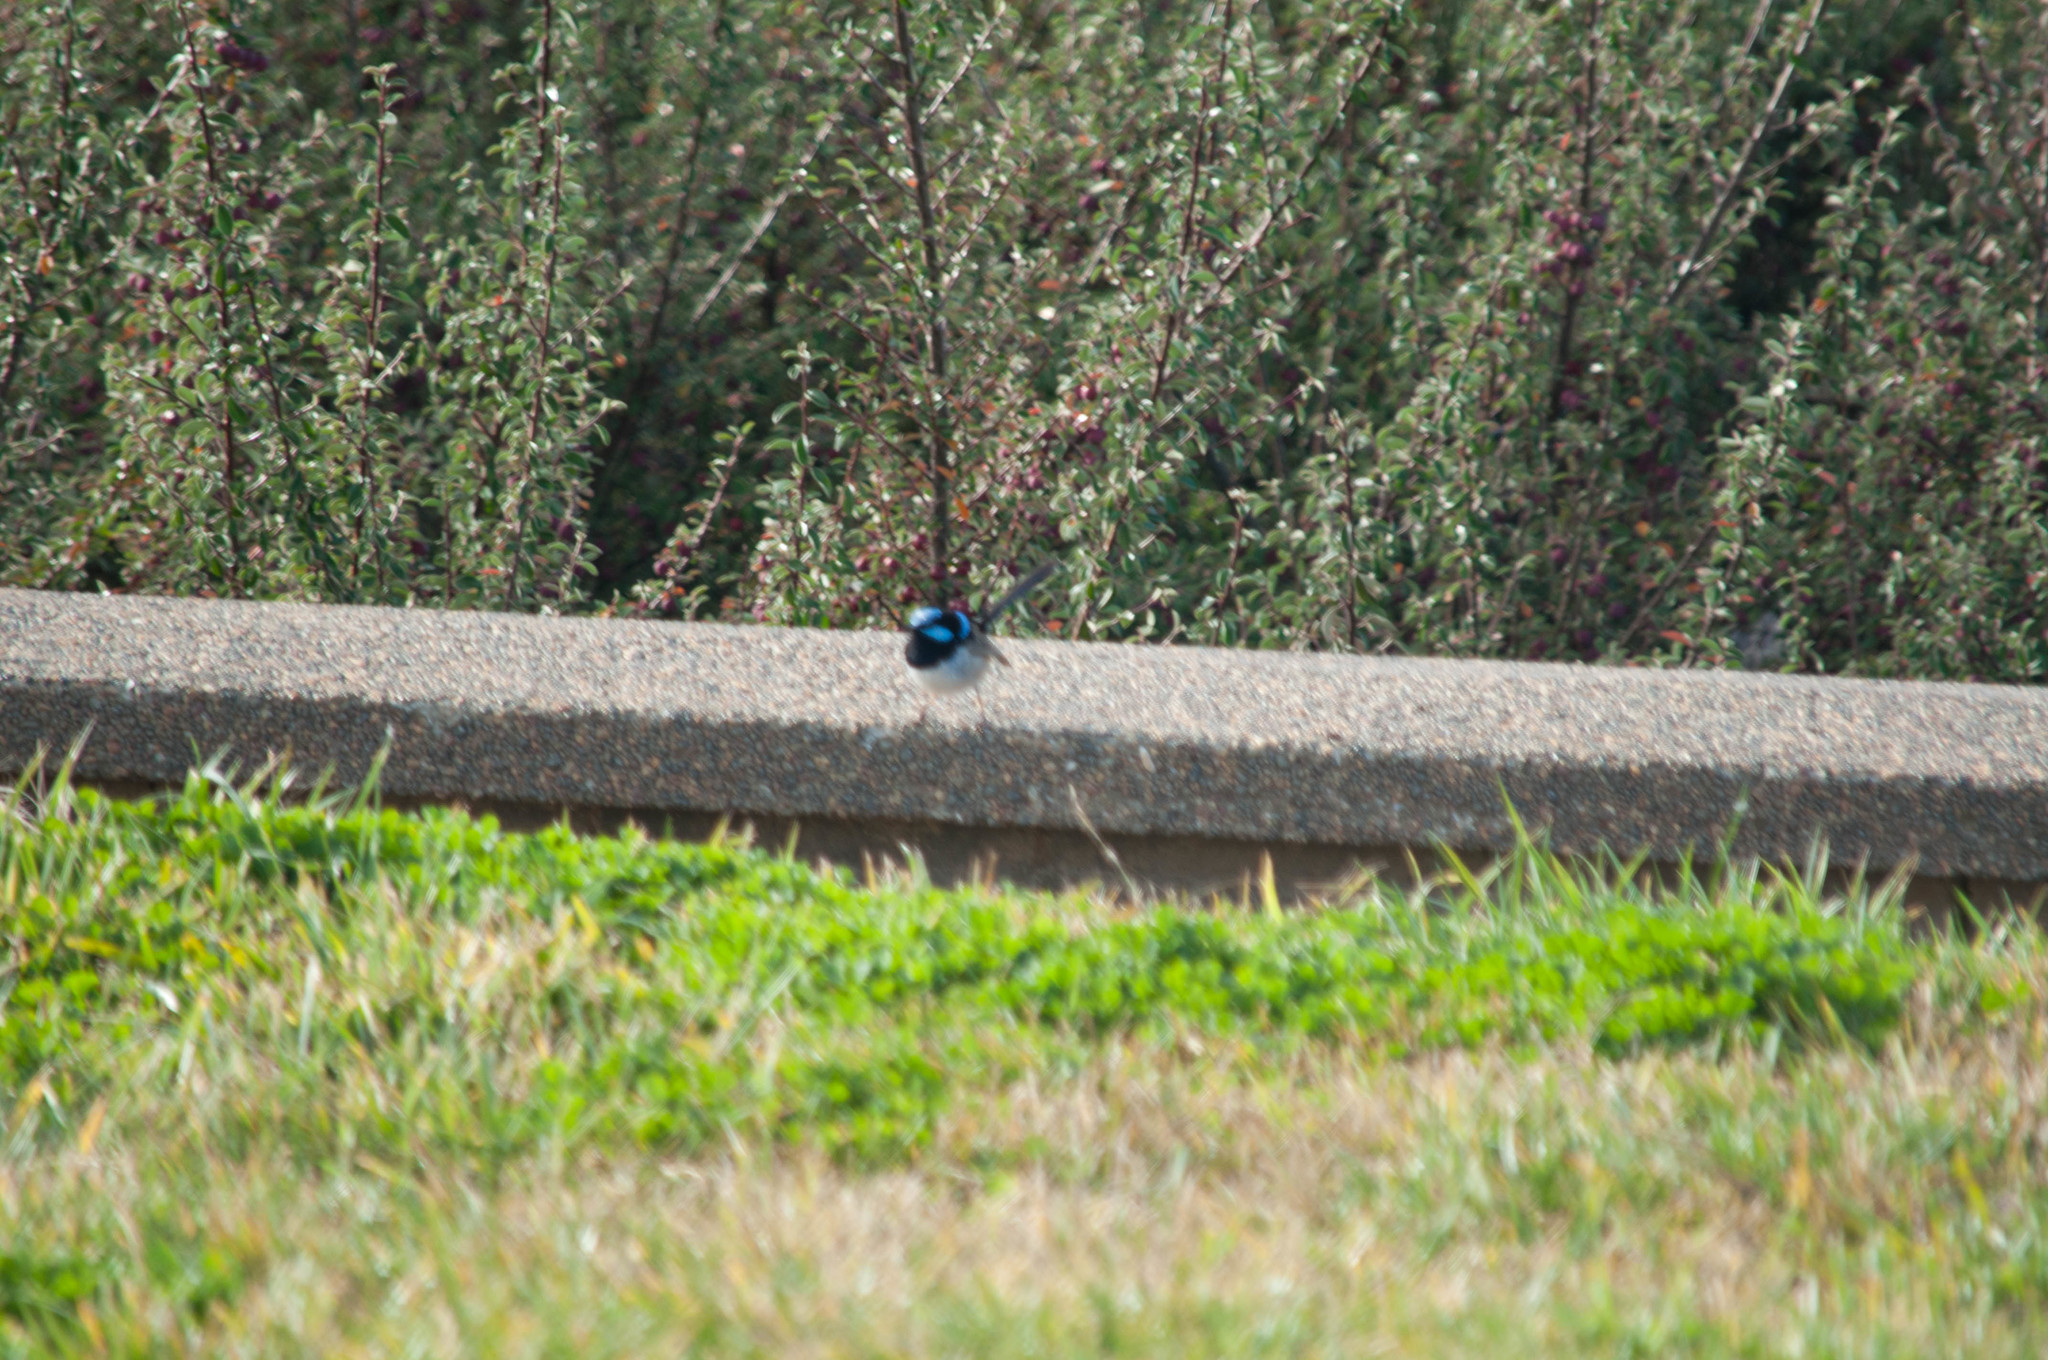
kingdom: Animalia
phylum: Chordata
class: Aves
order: Passeriformes
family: Maluridae
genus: Malurus
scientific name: Malurus cyaneus
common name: Superb fairywren
